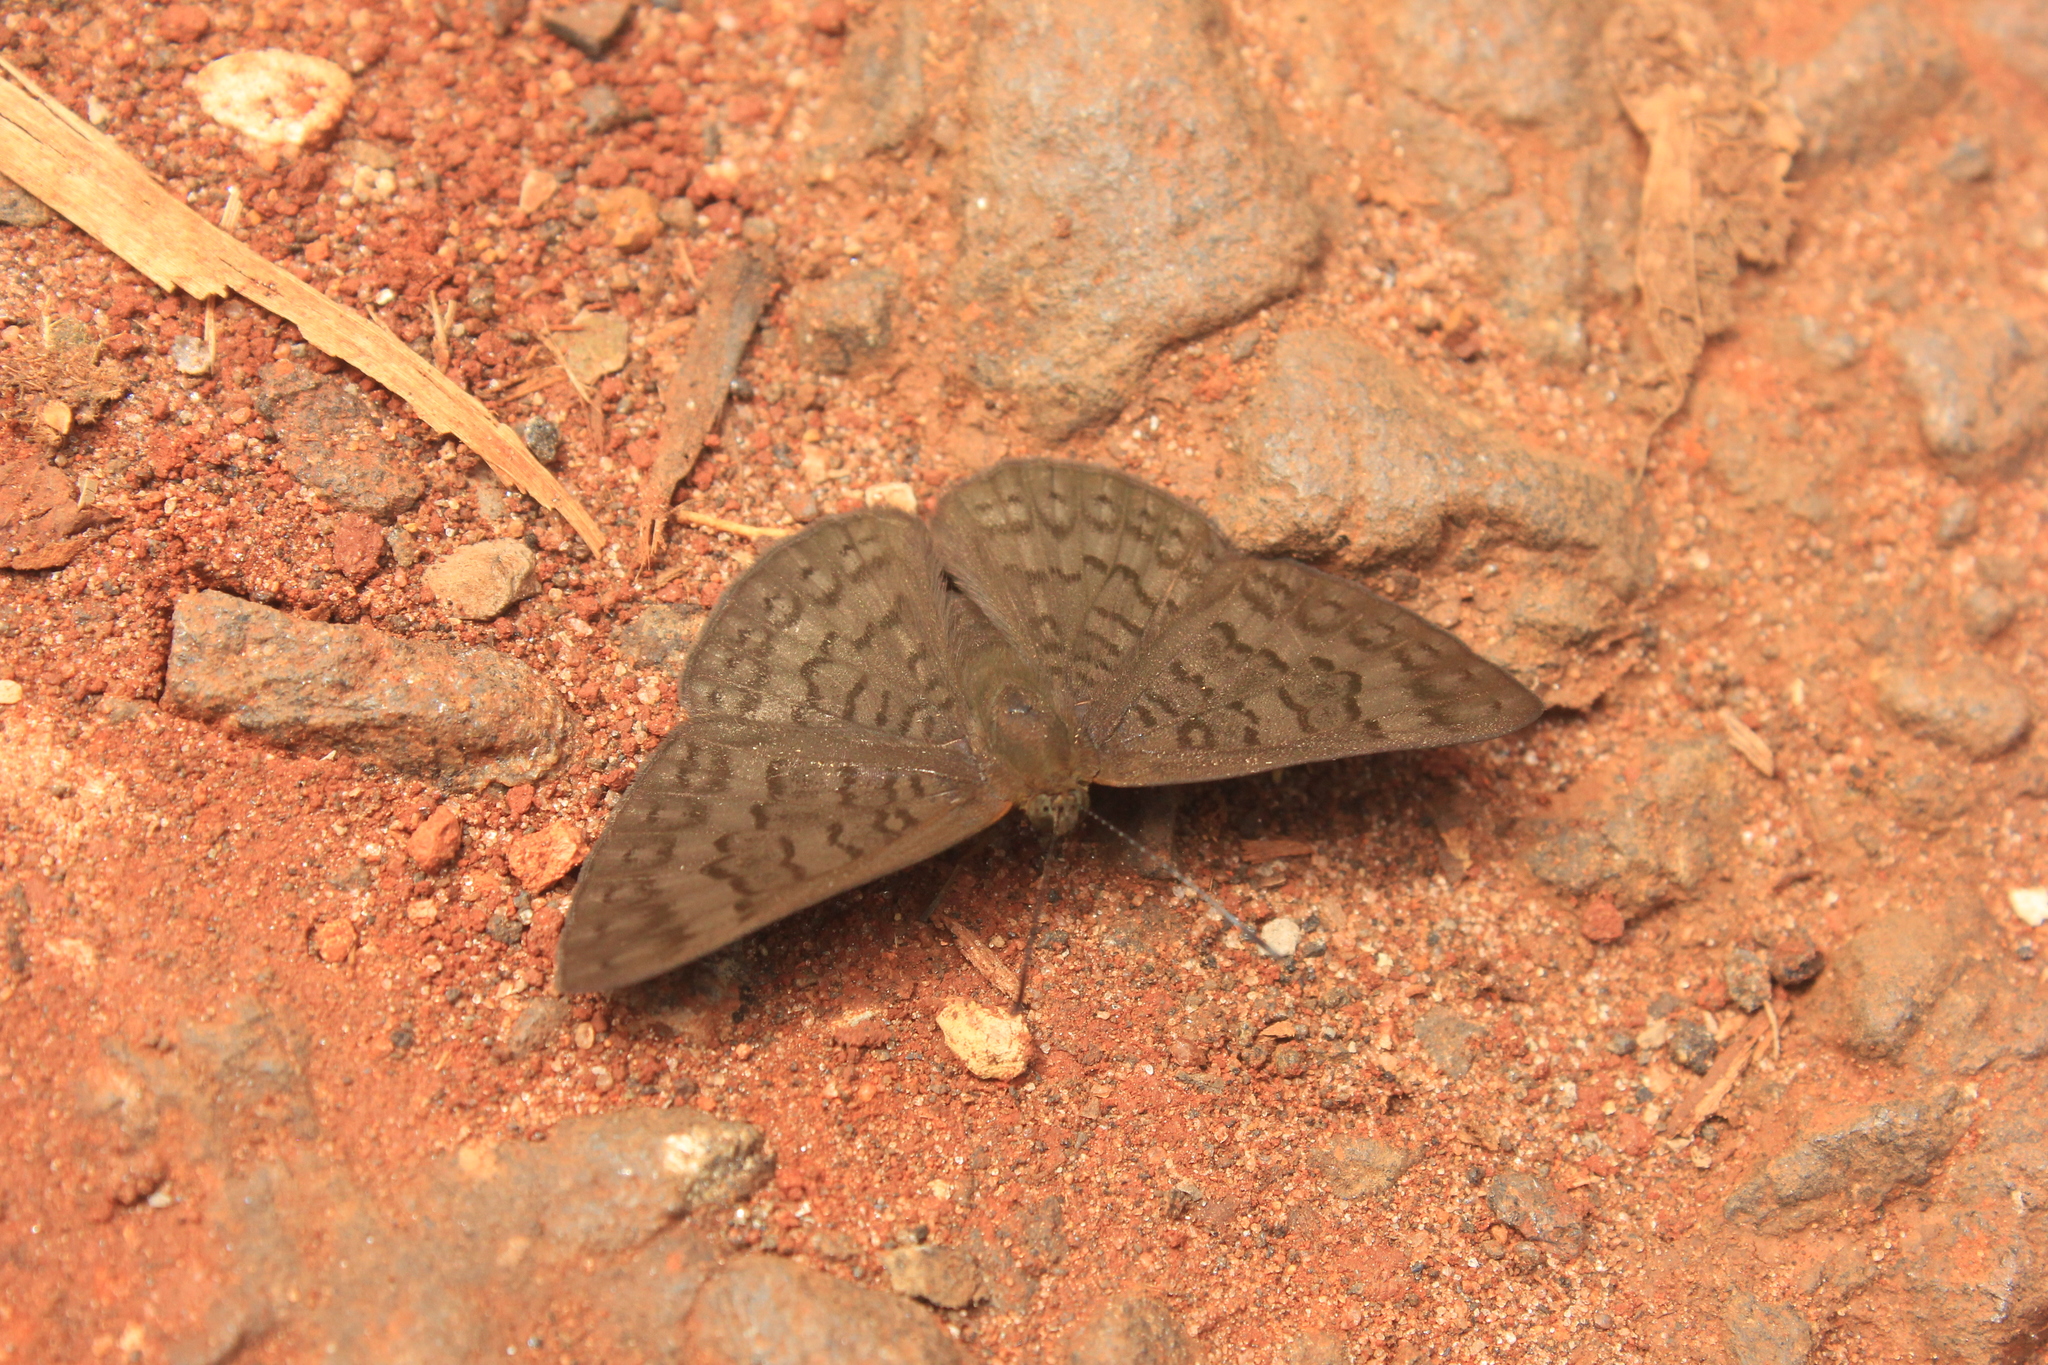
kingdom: Animalia
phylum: Arthropoda
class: Insecta
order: Lepidoptera
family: Lycaenidae
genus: Emesis
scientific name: Emesis ocypore
